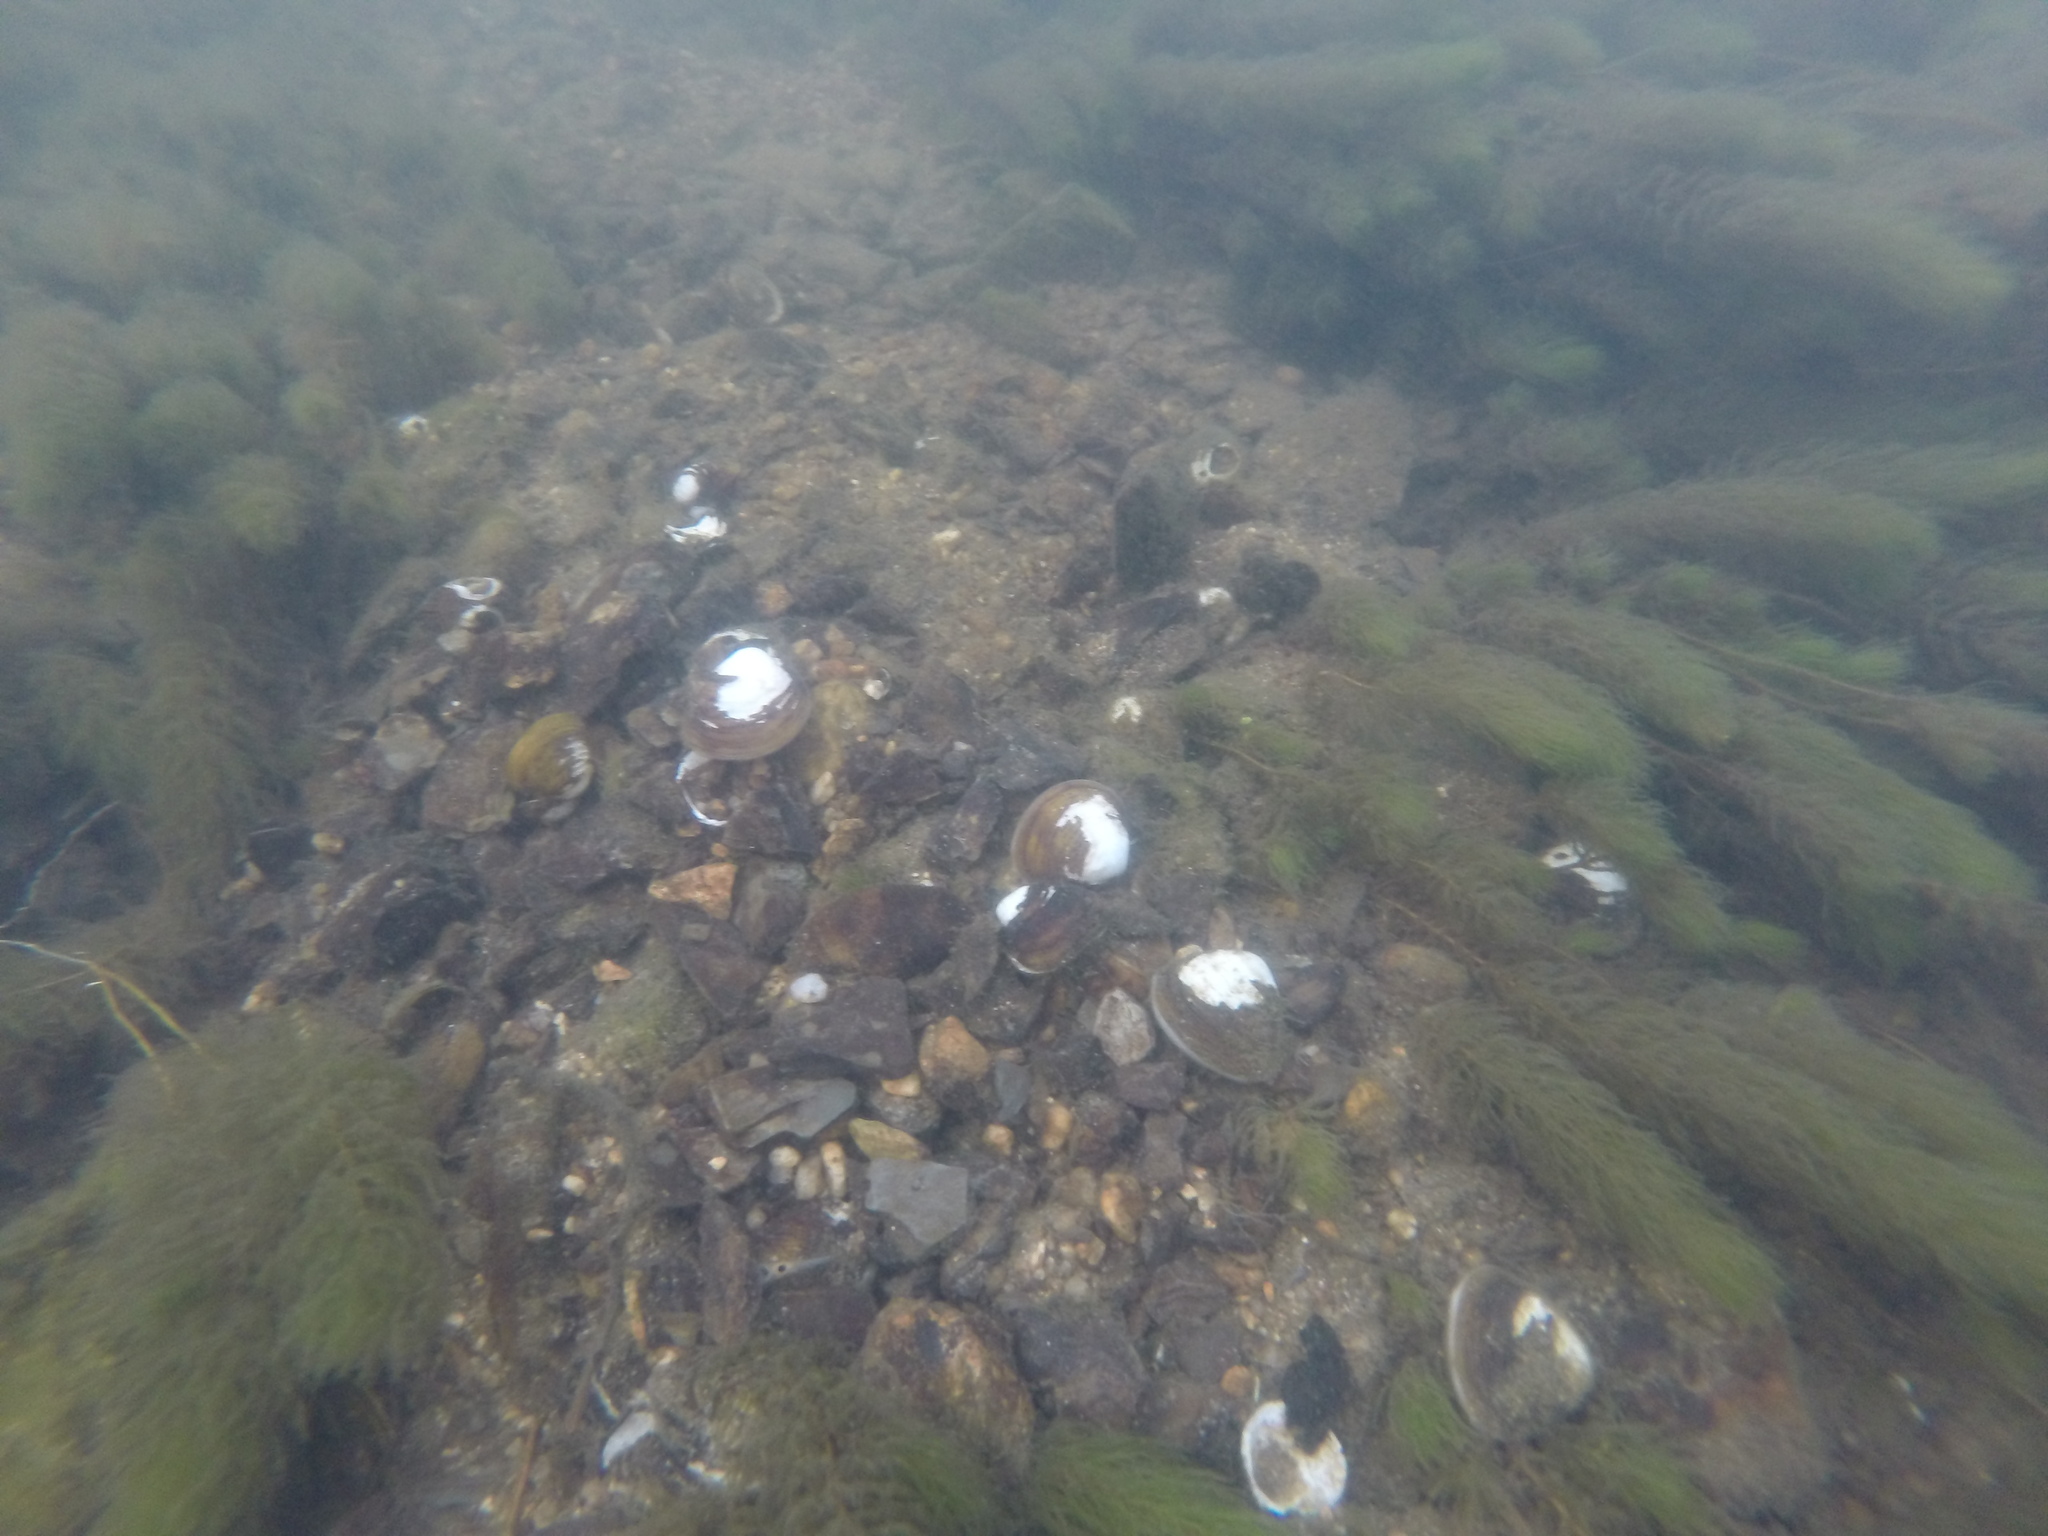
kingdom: Animalia
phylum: Mollusca
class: Bivalvia
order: Venerida
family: Cyrenidae
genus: Corbicula
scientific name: Corbicula fluminea
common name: Asian clam
